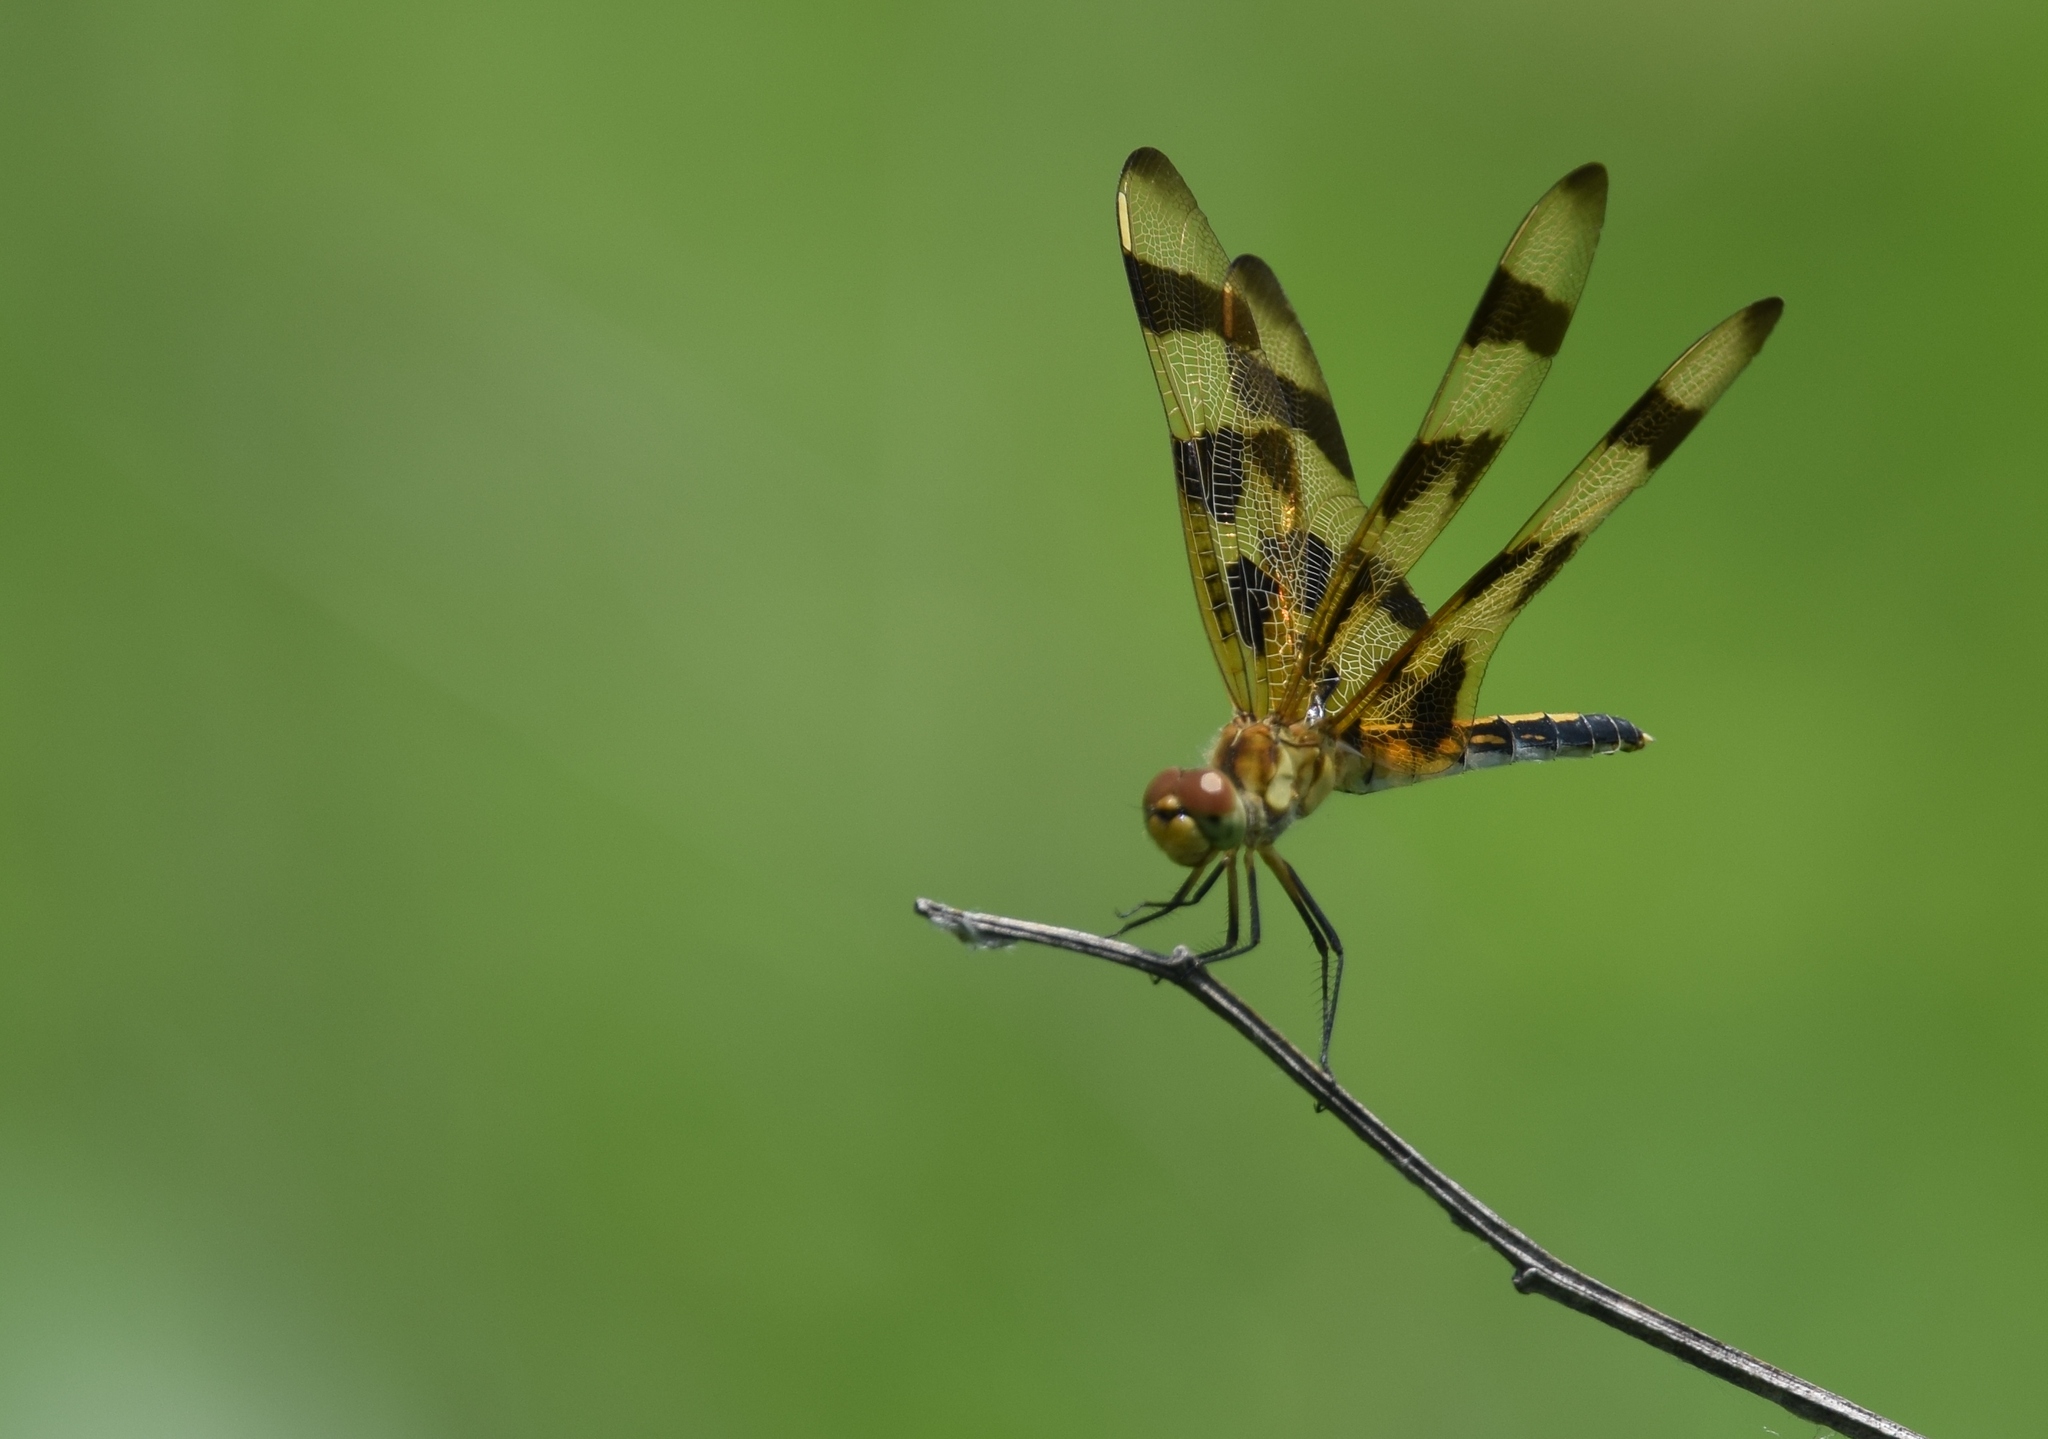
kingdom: Animalia
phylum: Arthropoda
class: Insecta
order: Odonata
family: Libellulidae
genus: Celithemis
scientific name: Celithemis eponina
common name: Halloween pennant
